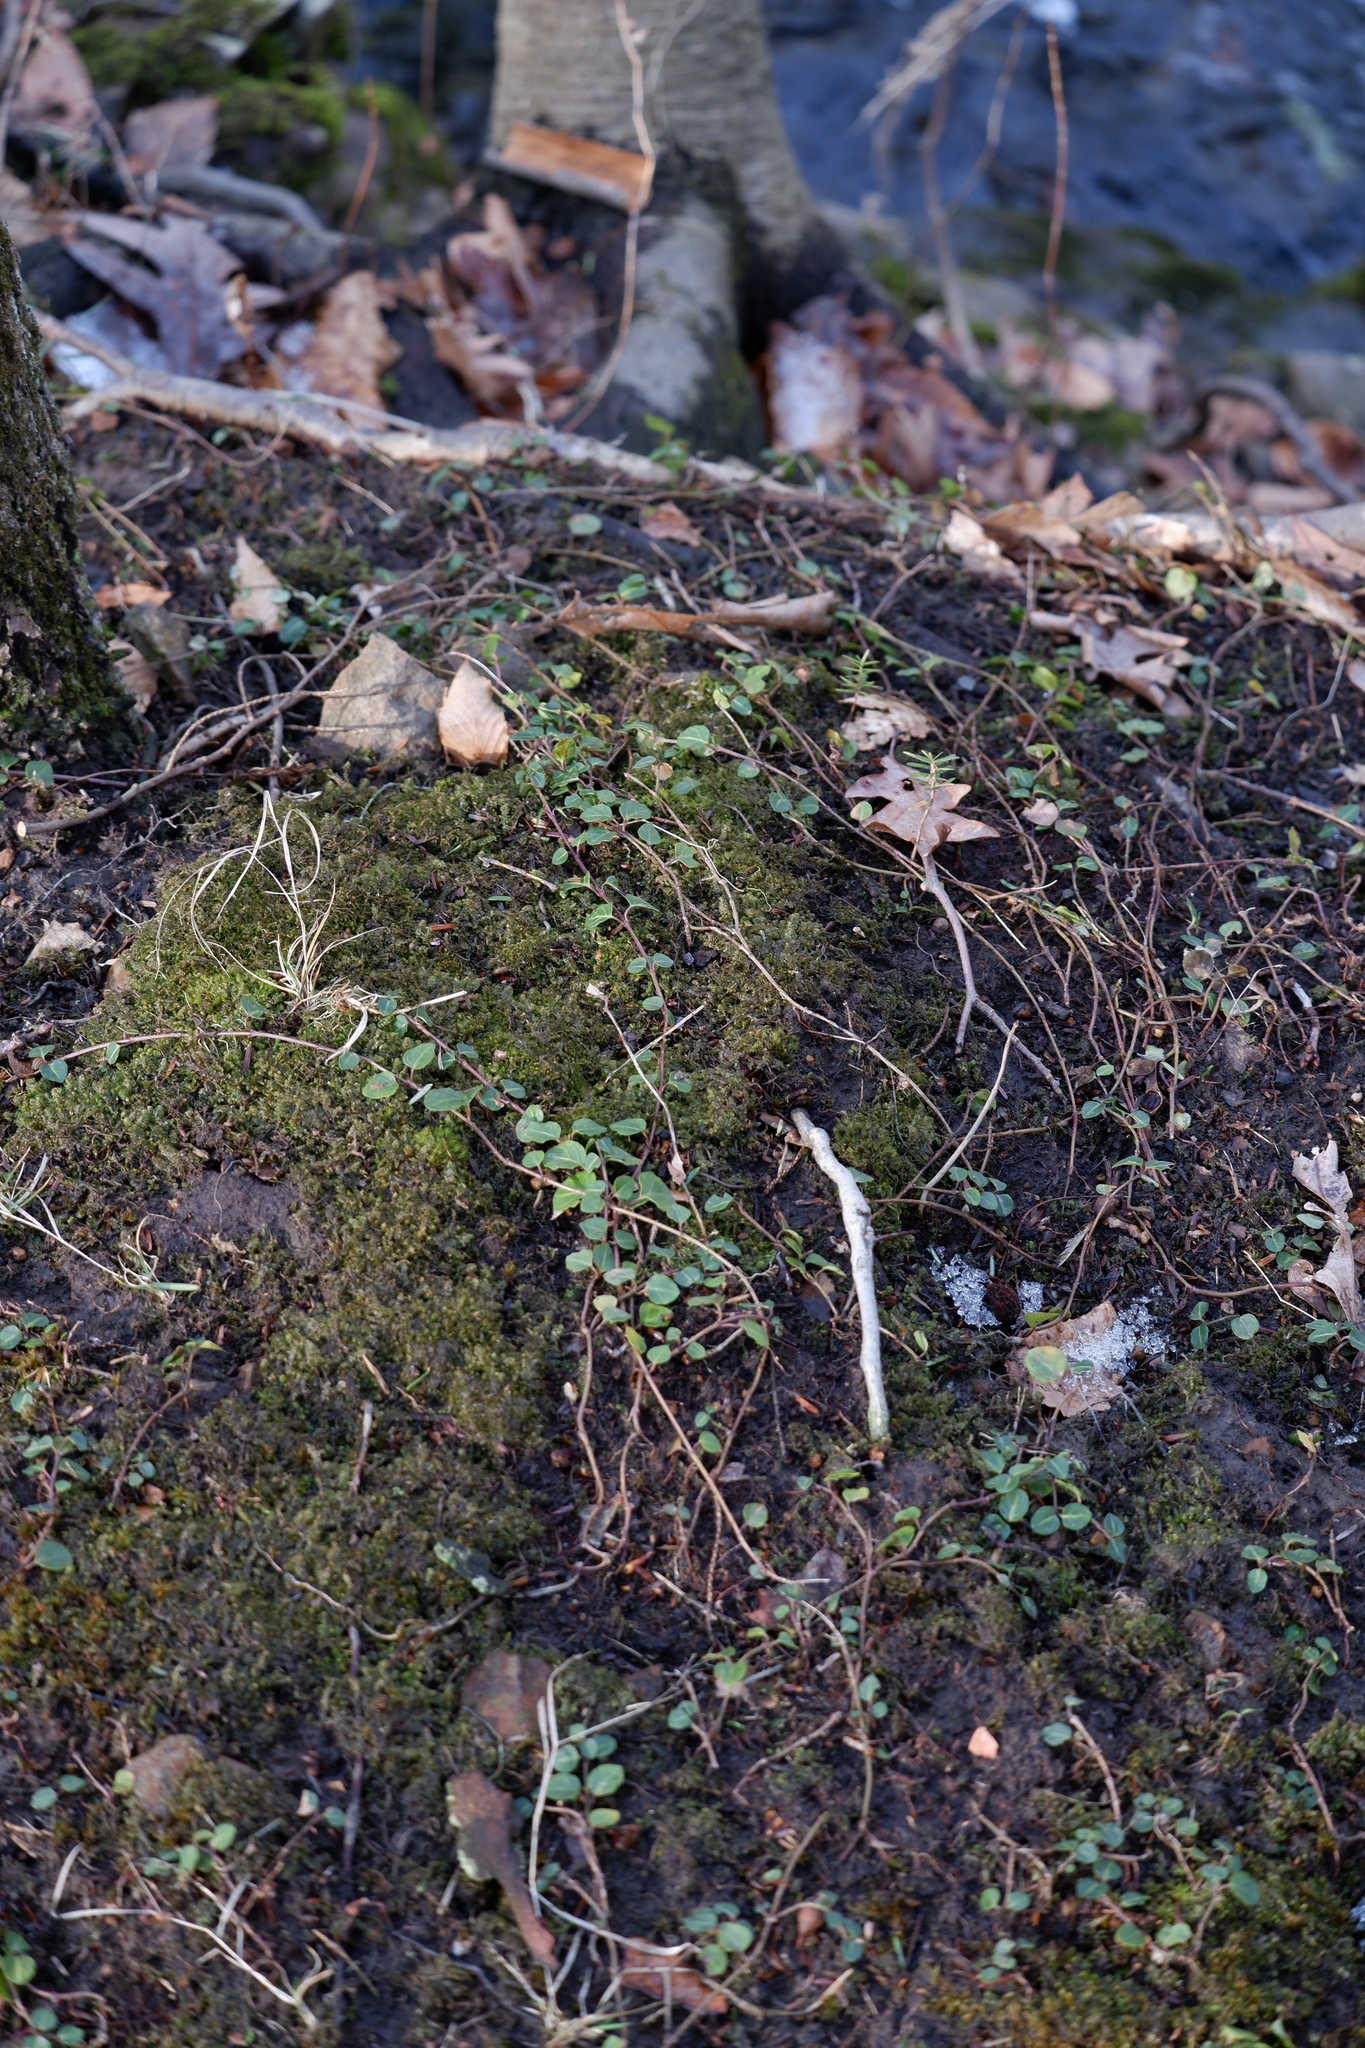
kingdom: Plantae
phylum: Tracheophyta
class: Magnoliopsida
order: Gentianales
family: Rubiaceae
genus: Mitchella
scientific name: Mitchella repens
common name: Partridge-berry
